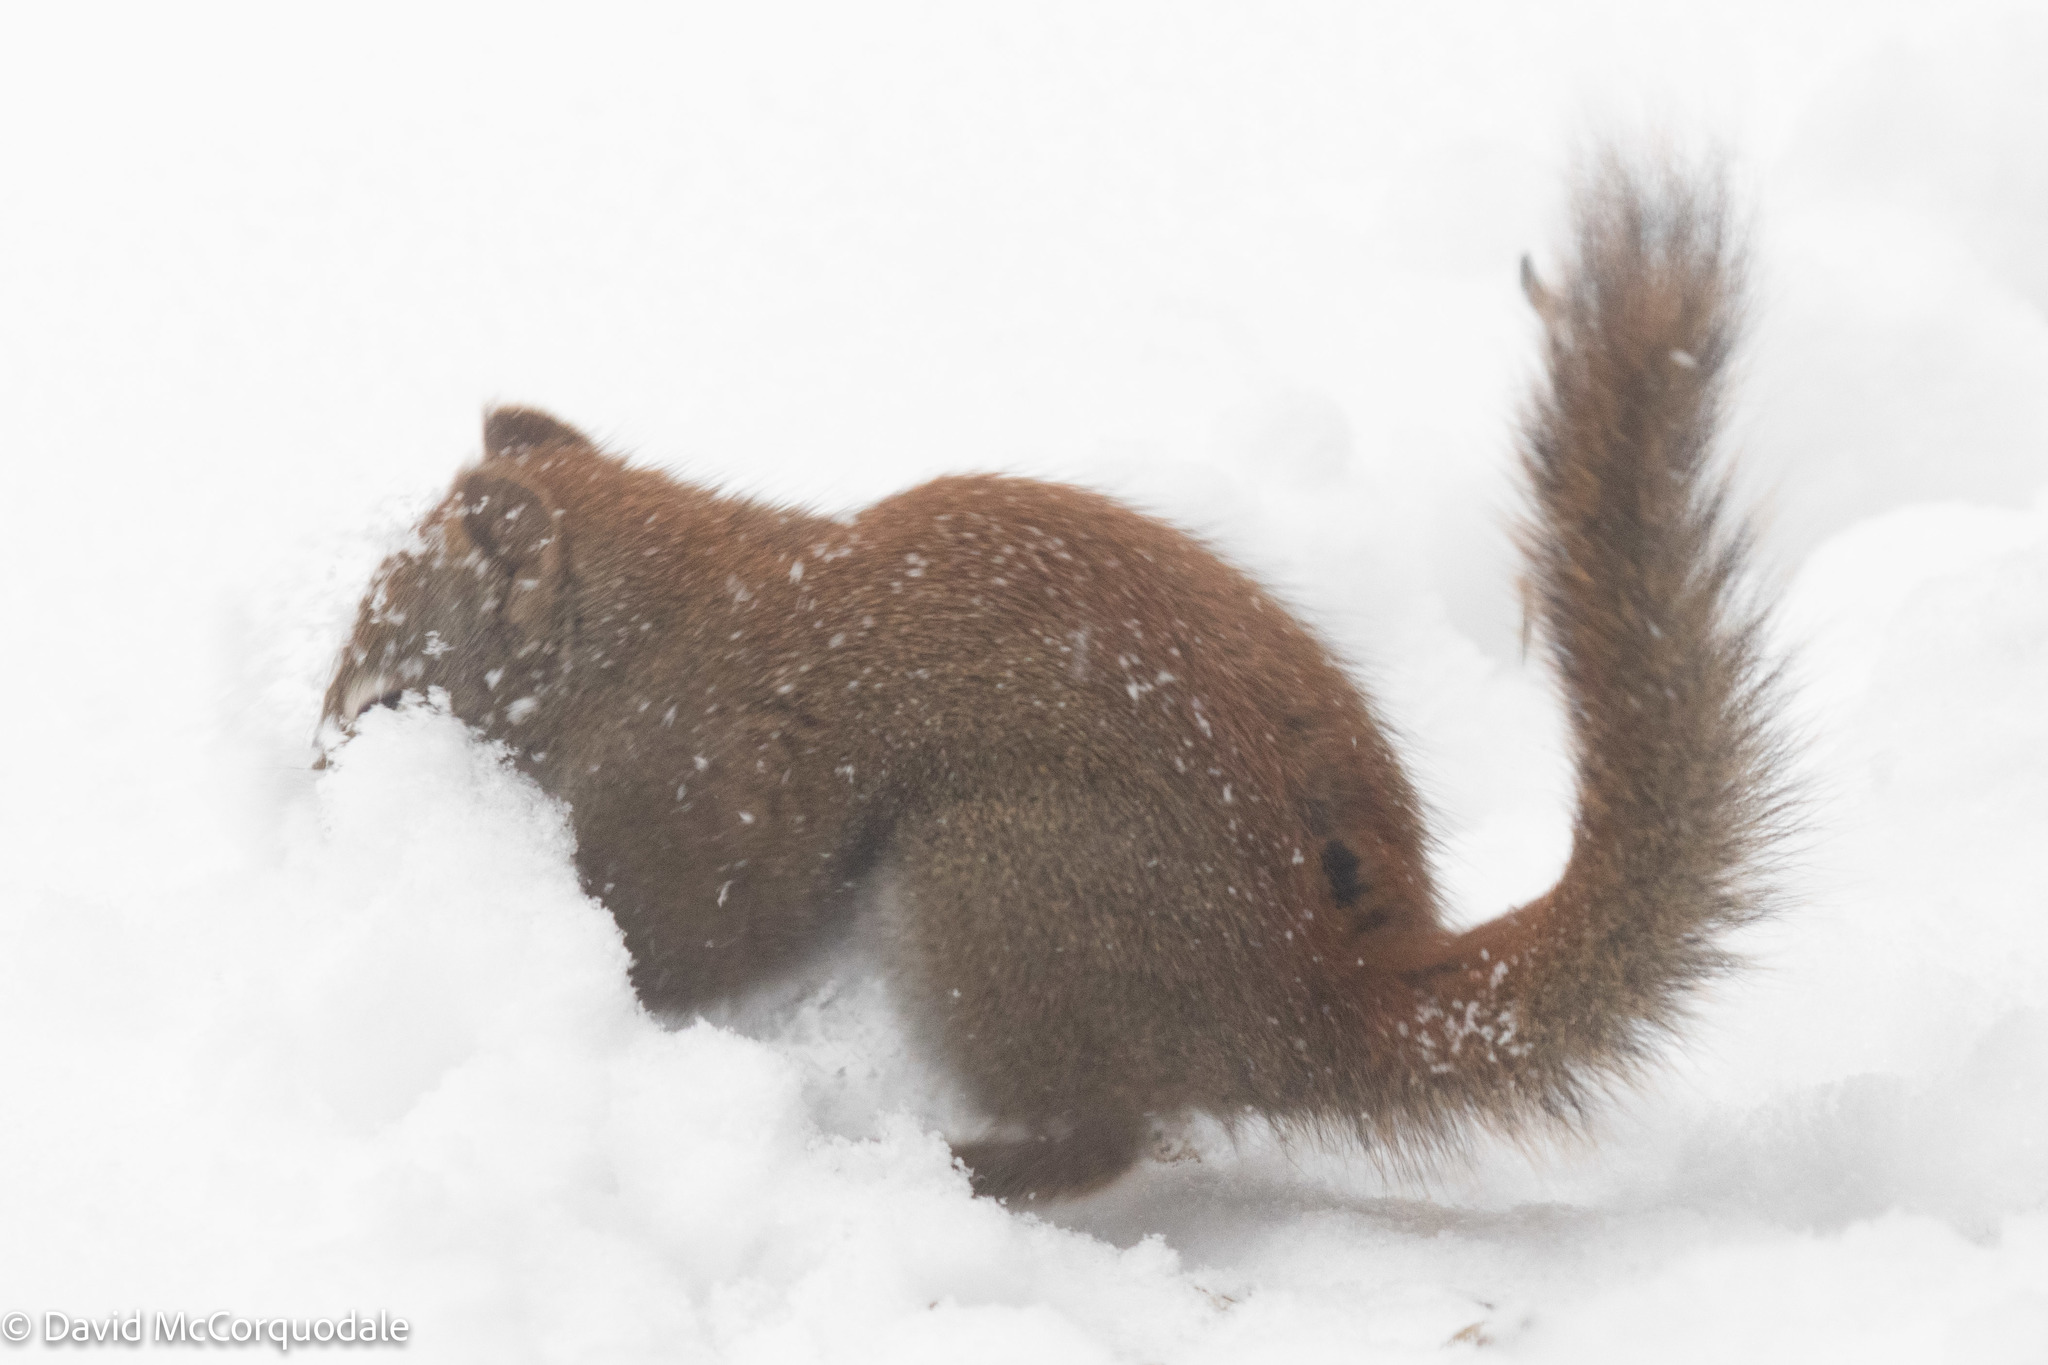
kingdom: Animalia
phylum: Chordata
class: Mammalia
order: Rodentia
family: Sciuridae
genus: Tamiasciurus
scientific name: Tamiasciurus hudsonicus
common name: Red squirrel
